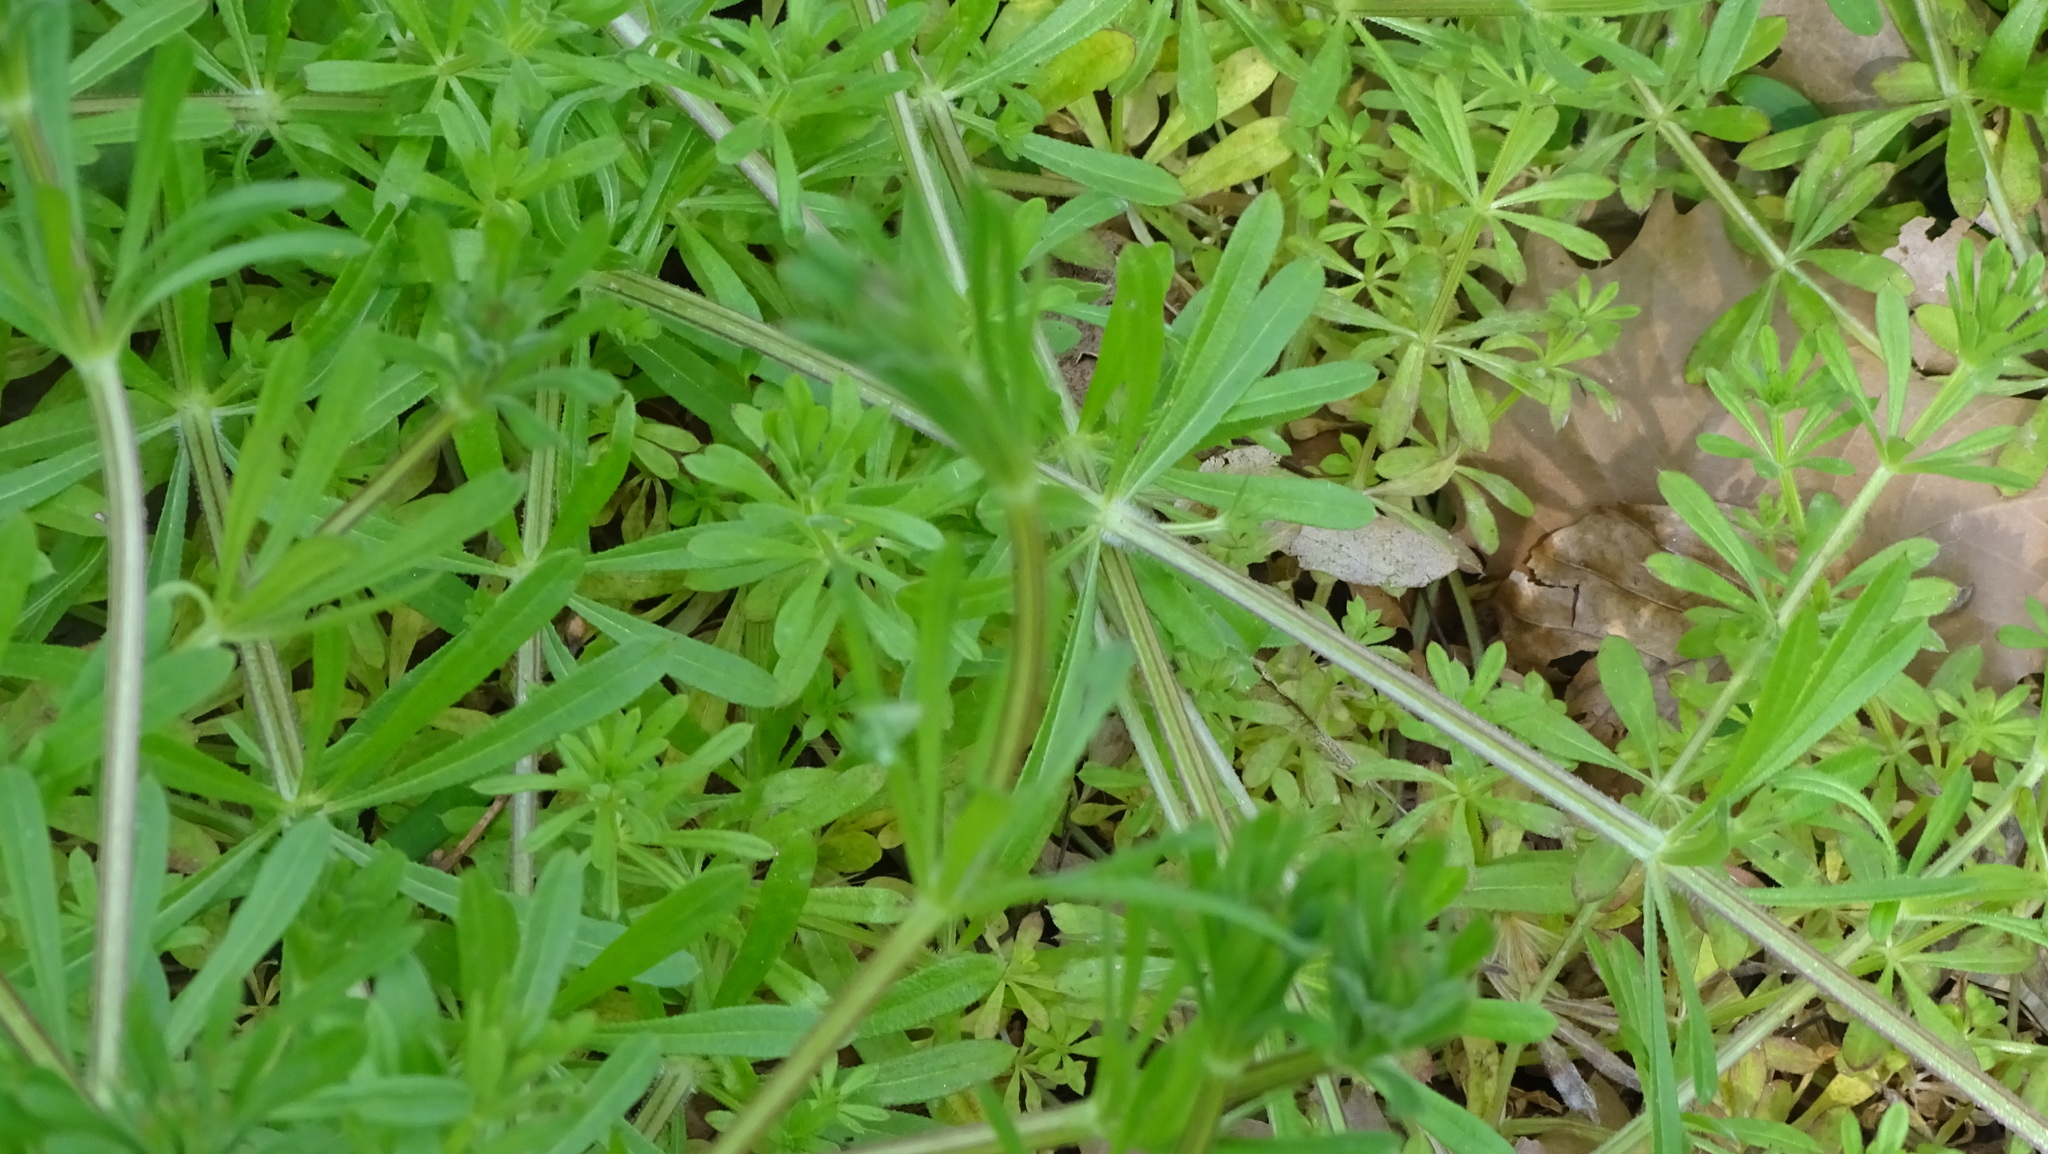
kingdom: Plantae
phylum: Tracheophyta
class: Magnoliopsida
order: Gentianales
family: Rubiaceae
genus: Galium
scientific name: Galium aparine
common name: Cleavers
